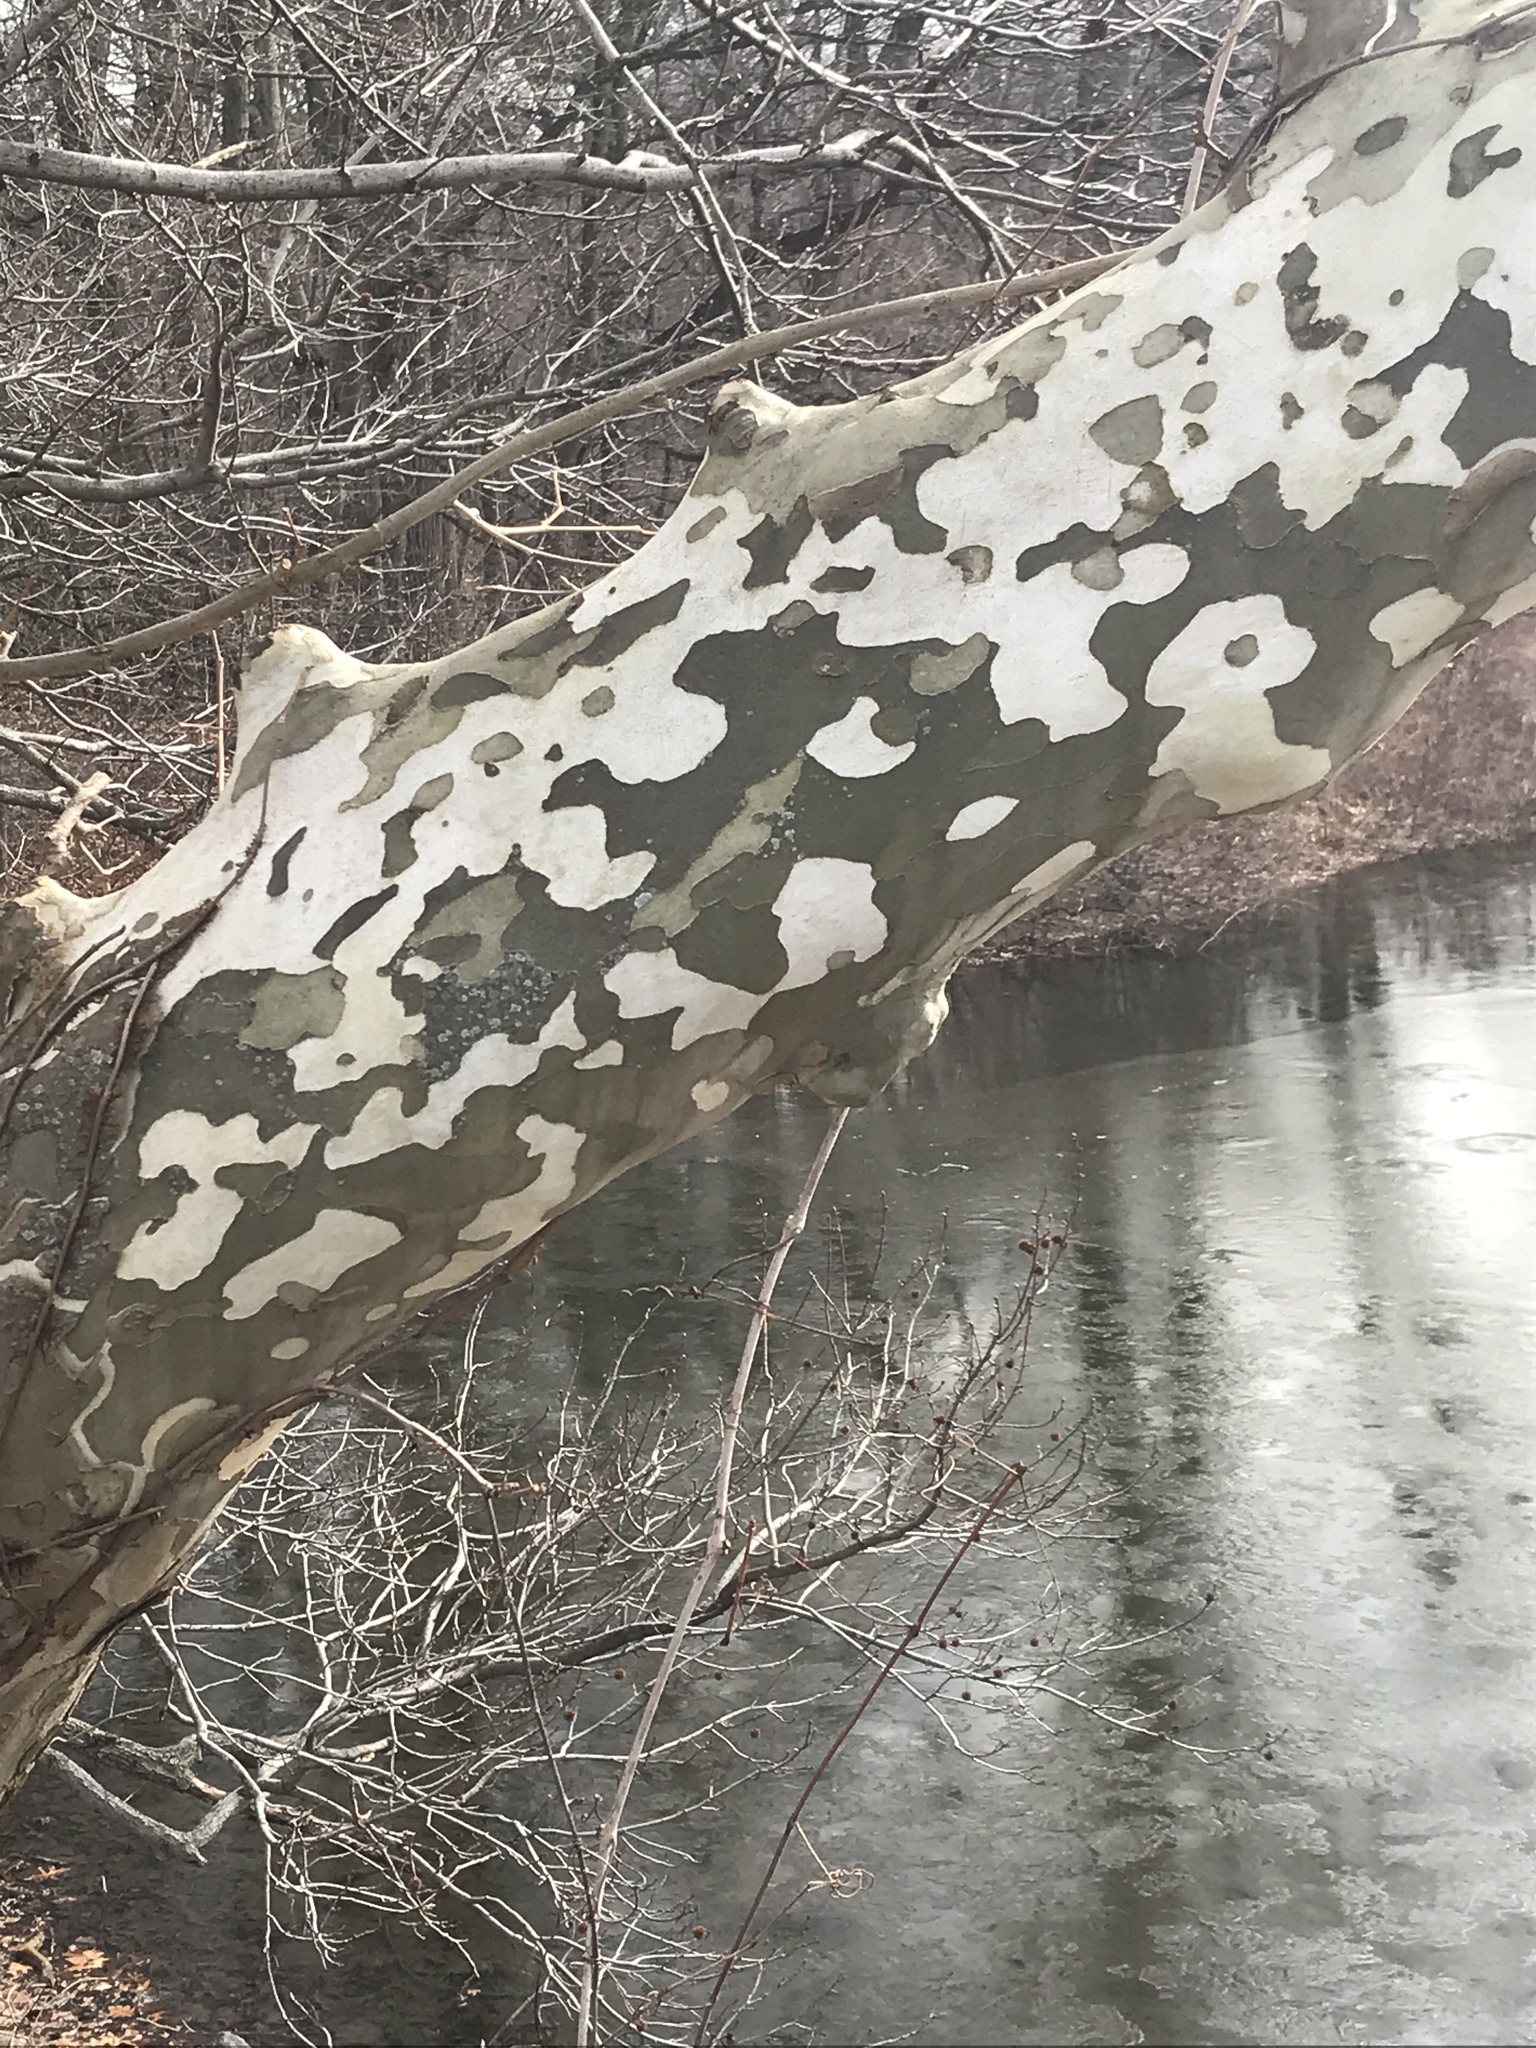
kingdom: Plantae
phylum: Tracheophyta
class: Magnoliopsida
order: Proteales
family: Platanaceae
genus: Platanus
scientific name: Platanus occidentalis
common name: American sycamore
